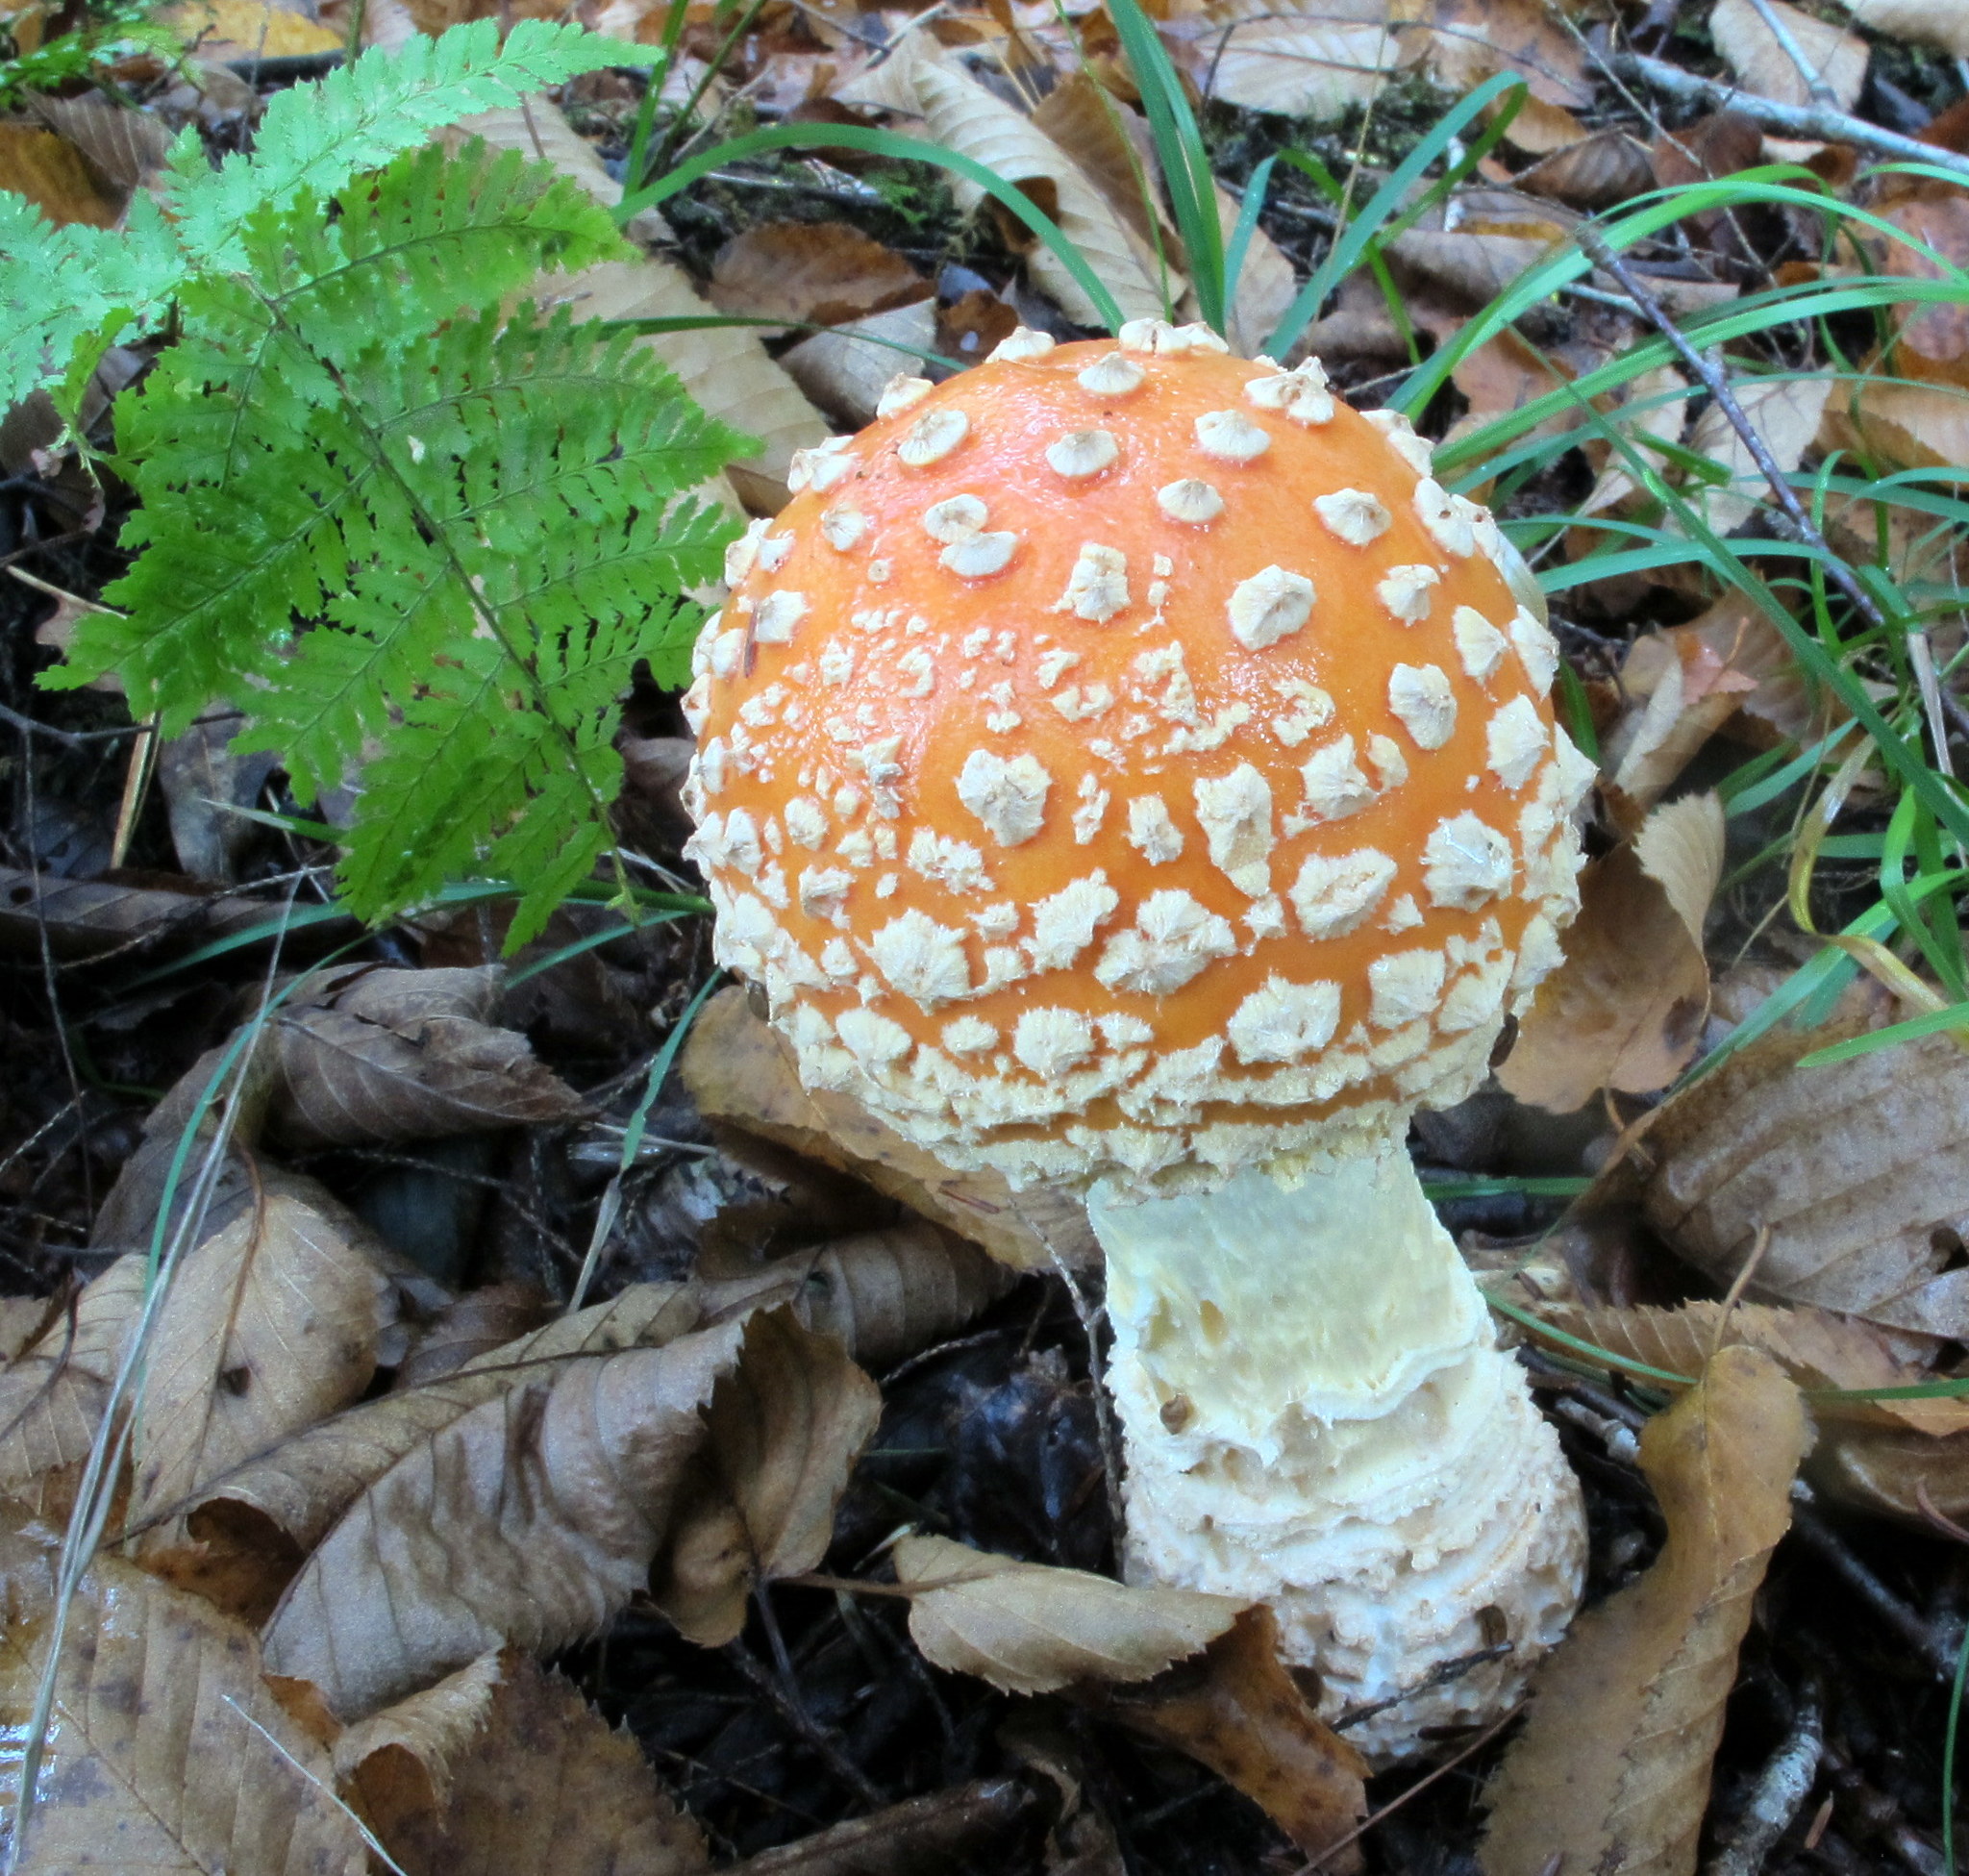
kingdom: Fungi
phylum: Basidiomycota
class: Agaricomycetes
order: Agaricales
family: Amanitaceae
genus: Amanita
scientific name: Amanita muscaria
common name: Fly agaric
